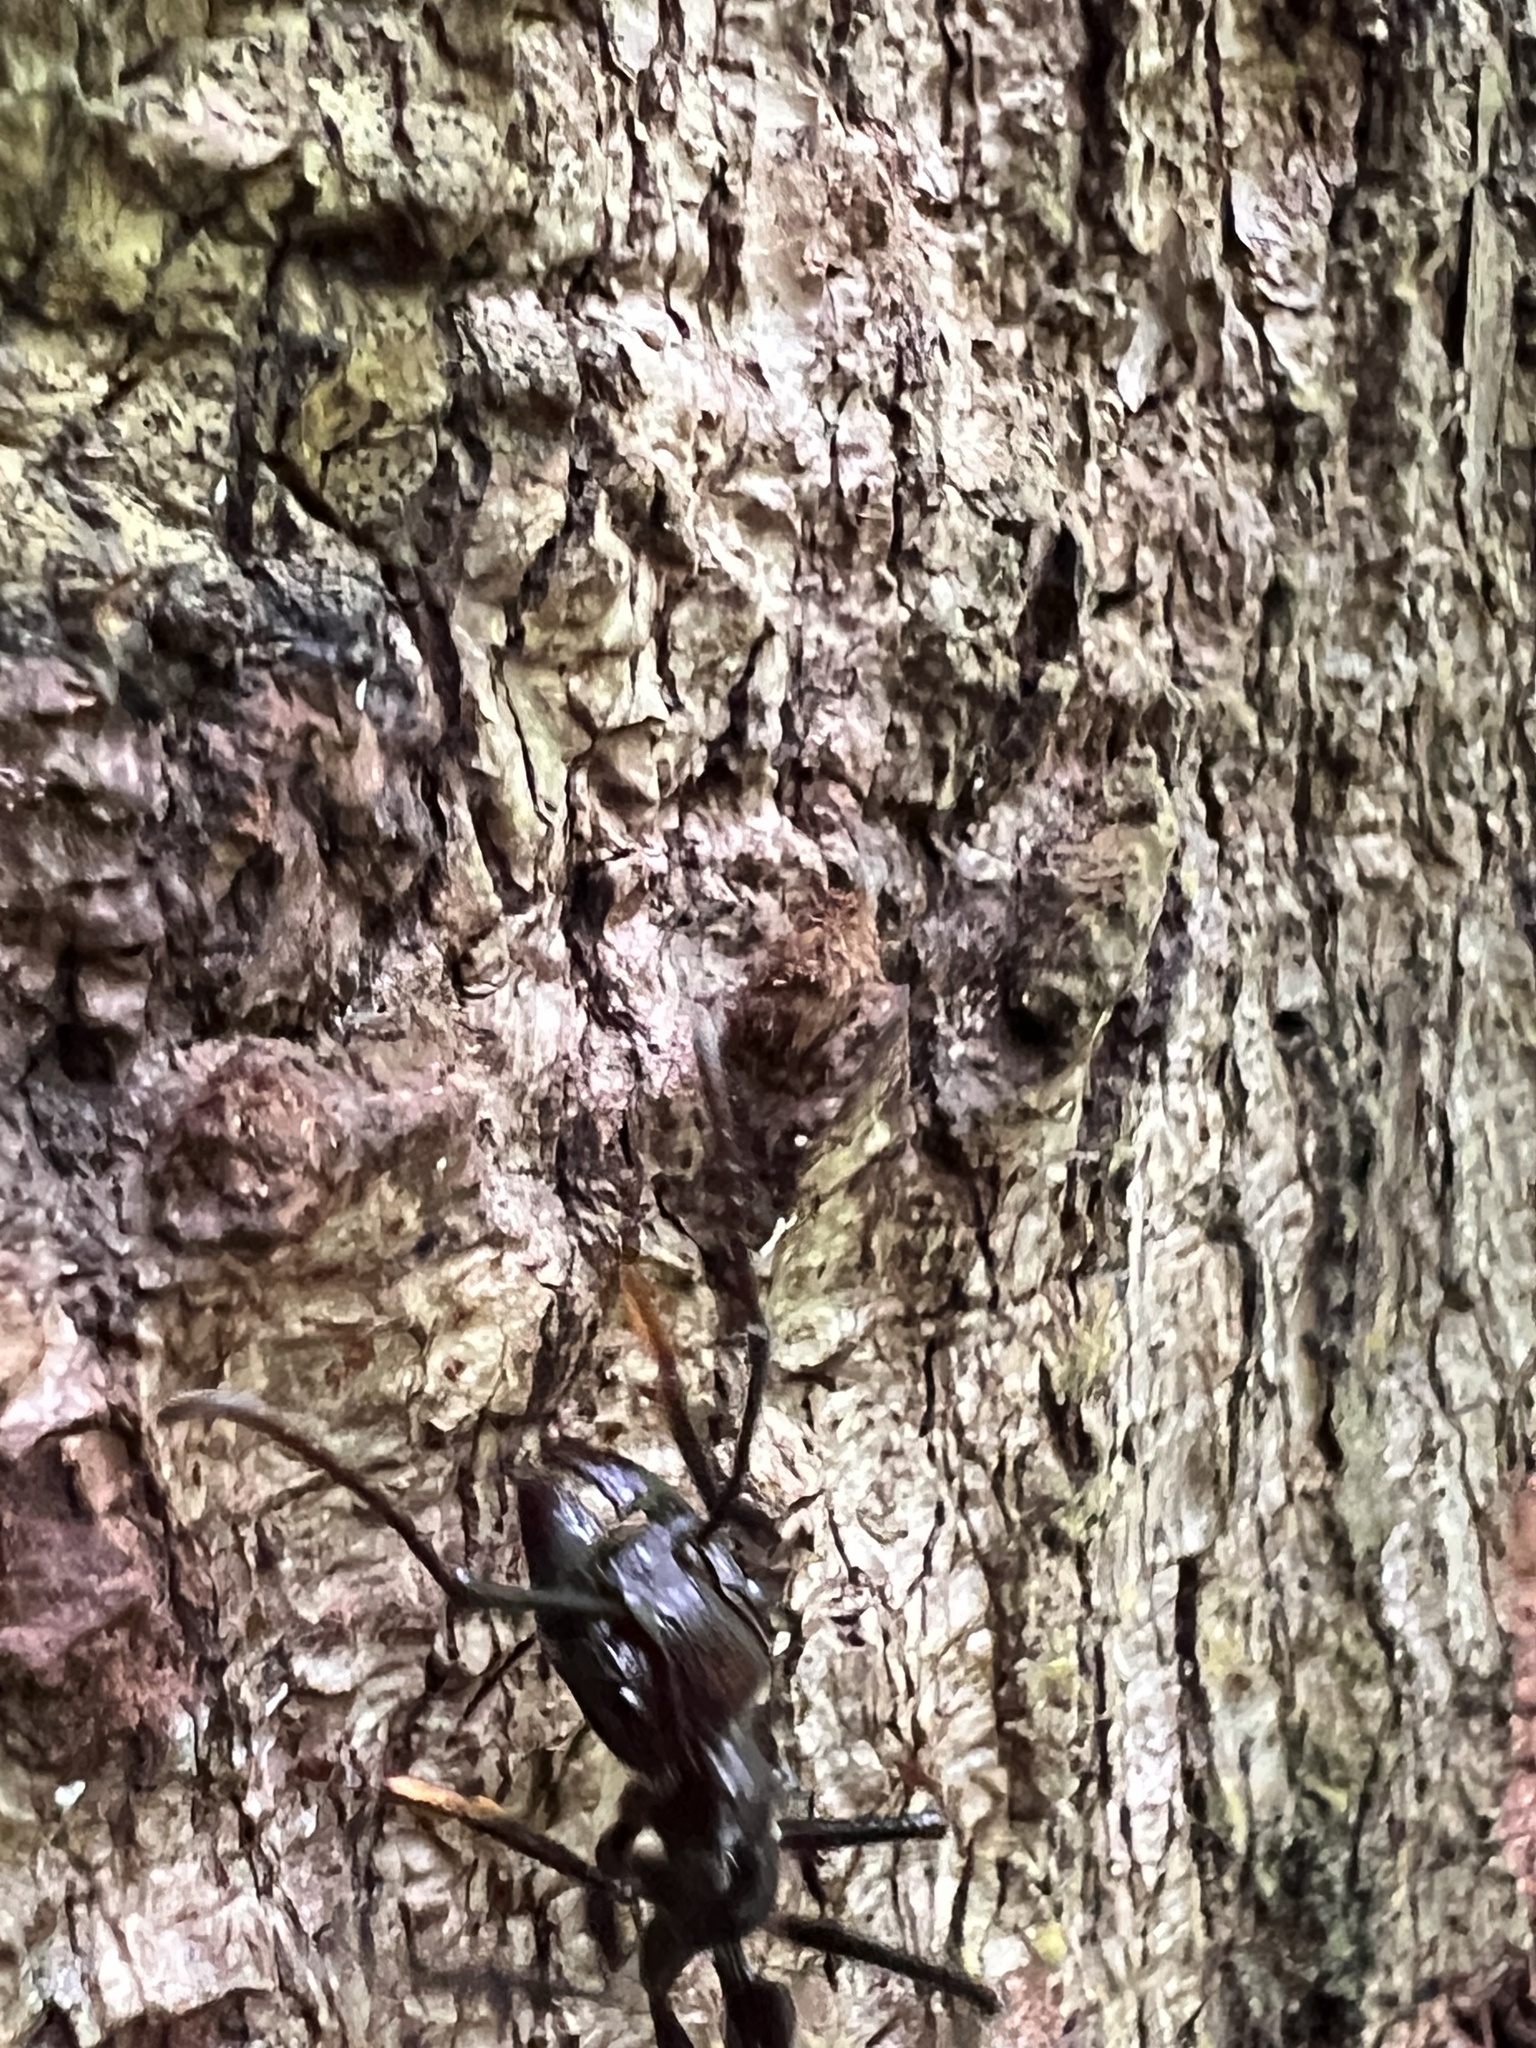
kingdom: Animalia
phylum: Arthropoda
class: Insecta
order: Hymenoptera
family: Formicidae
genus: Paraponera
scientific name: Paraponera clavata
